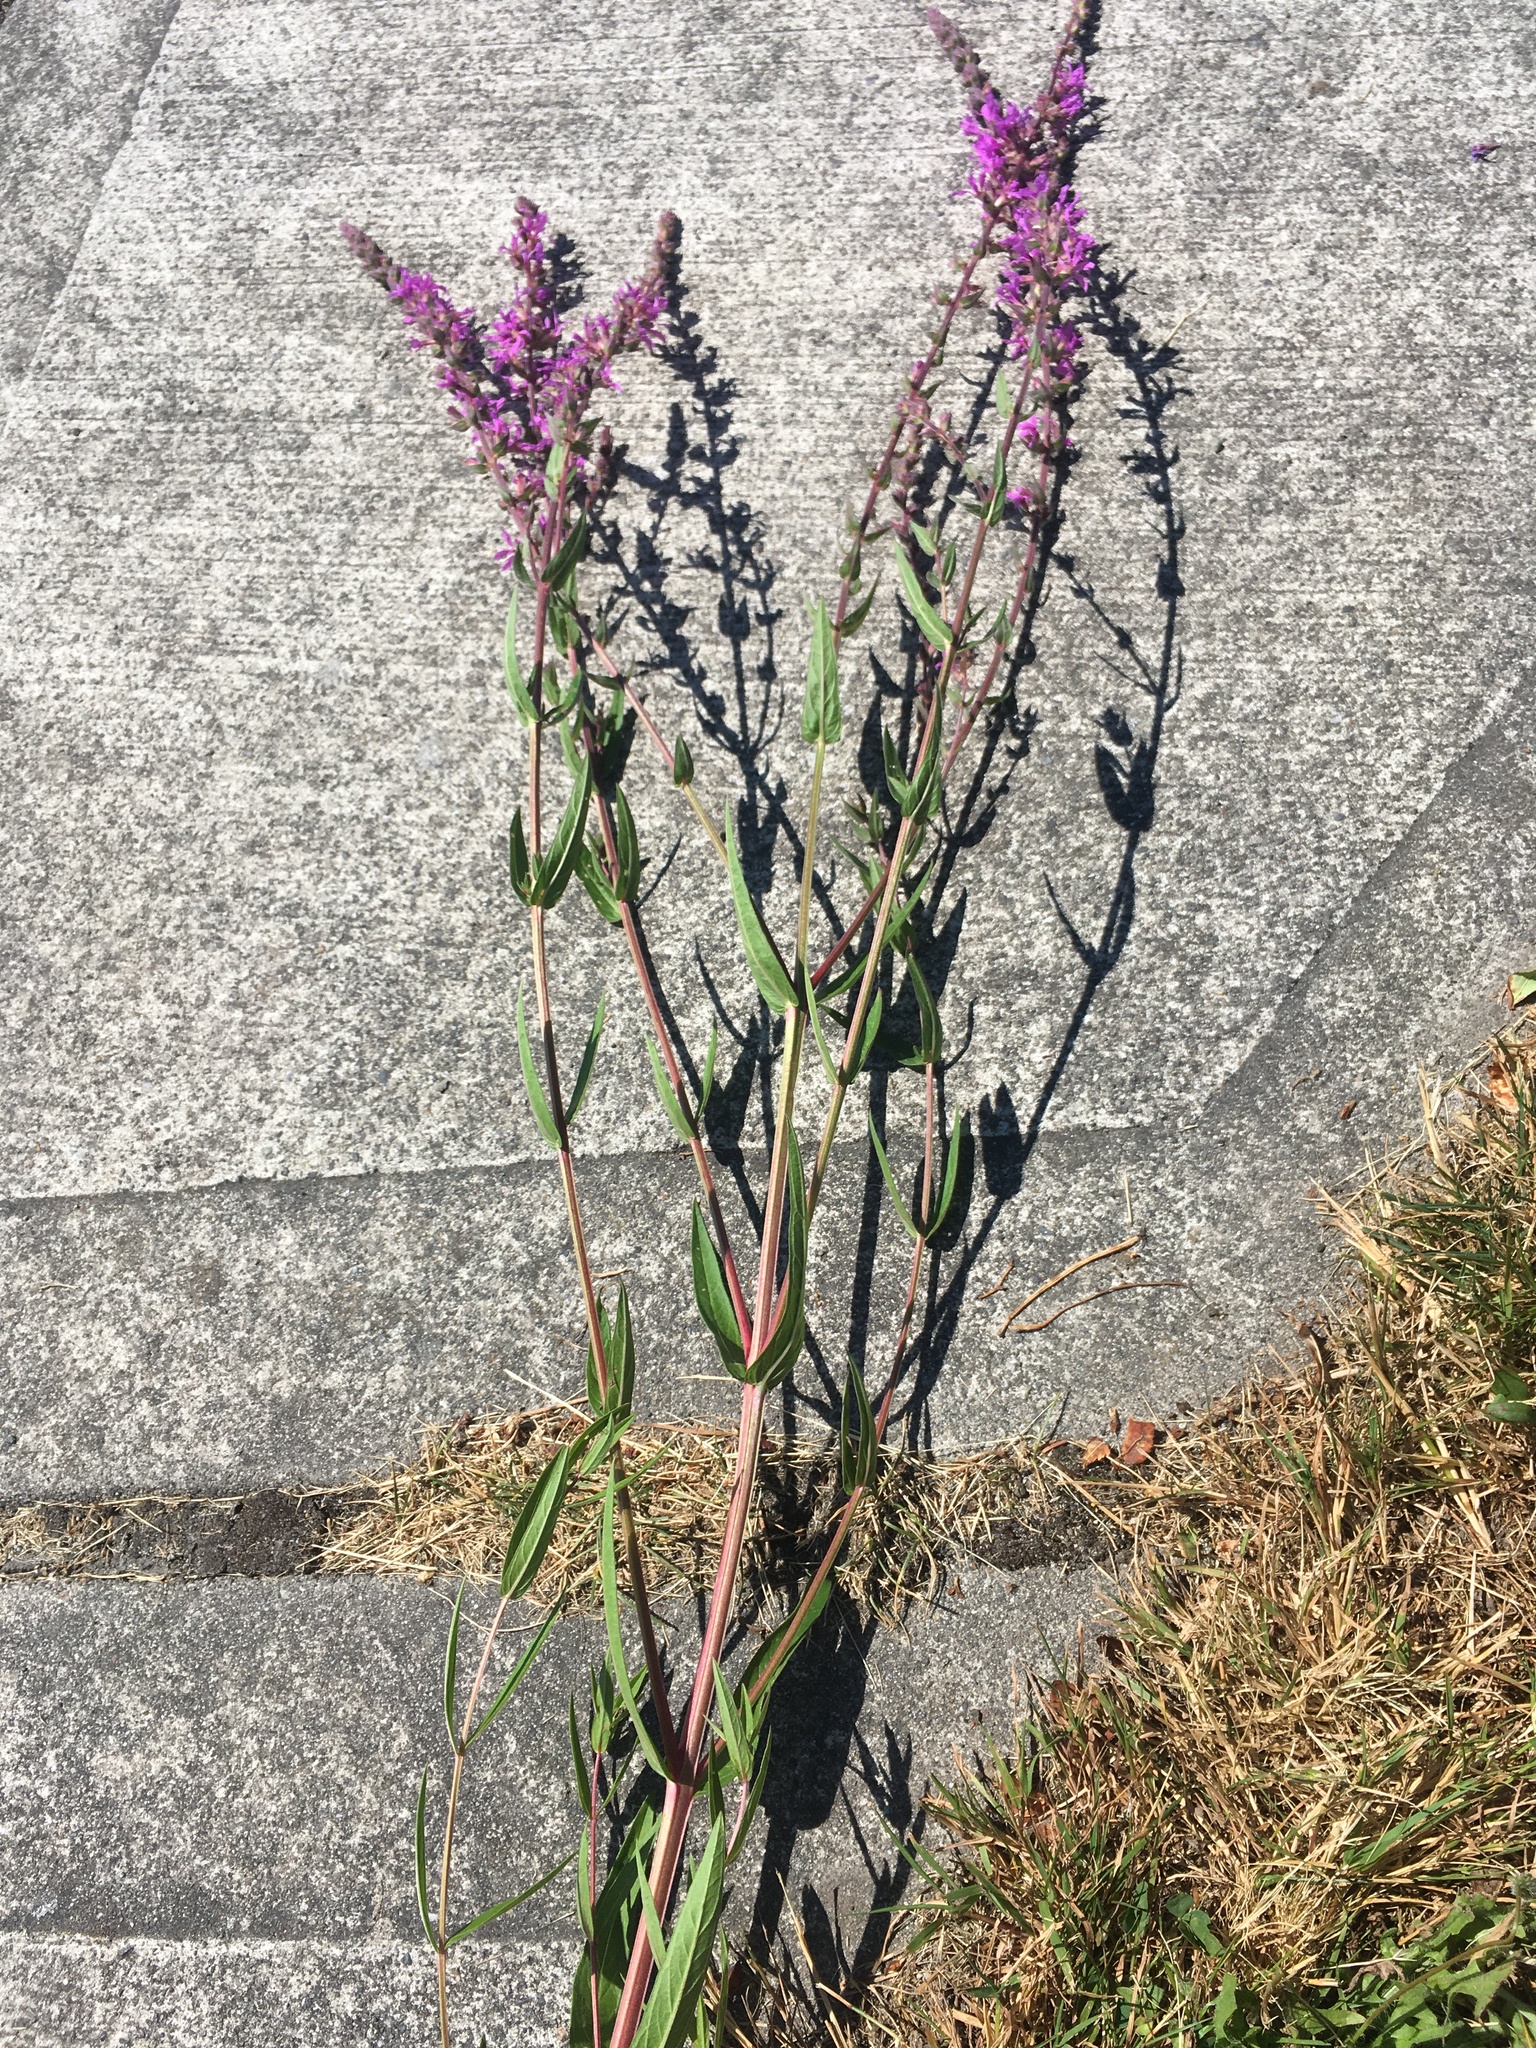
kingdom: Plantae
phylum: Tracheophyta
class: Magnoliopsida
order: Myrtales
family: Lythraceae
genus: Lythrum
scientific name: Lythrum salicaria
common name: Purple loosestrife
